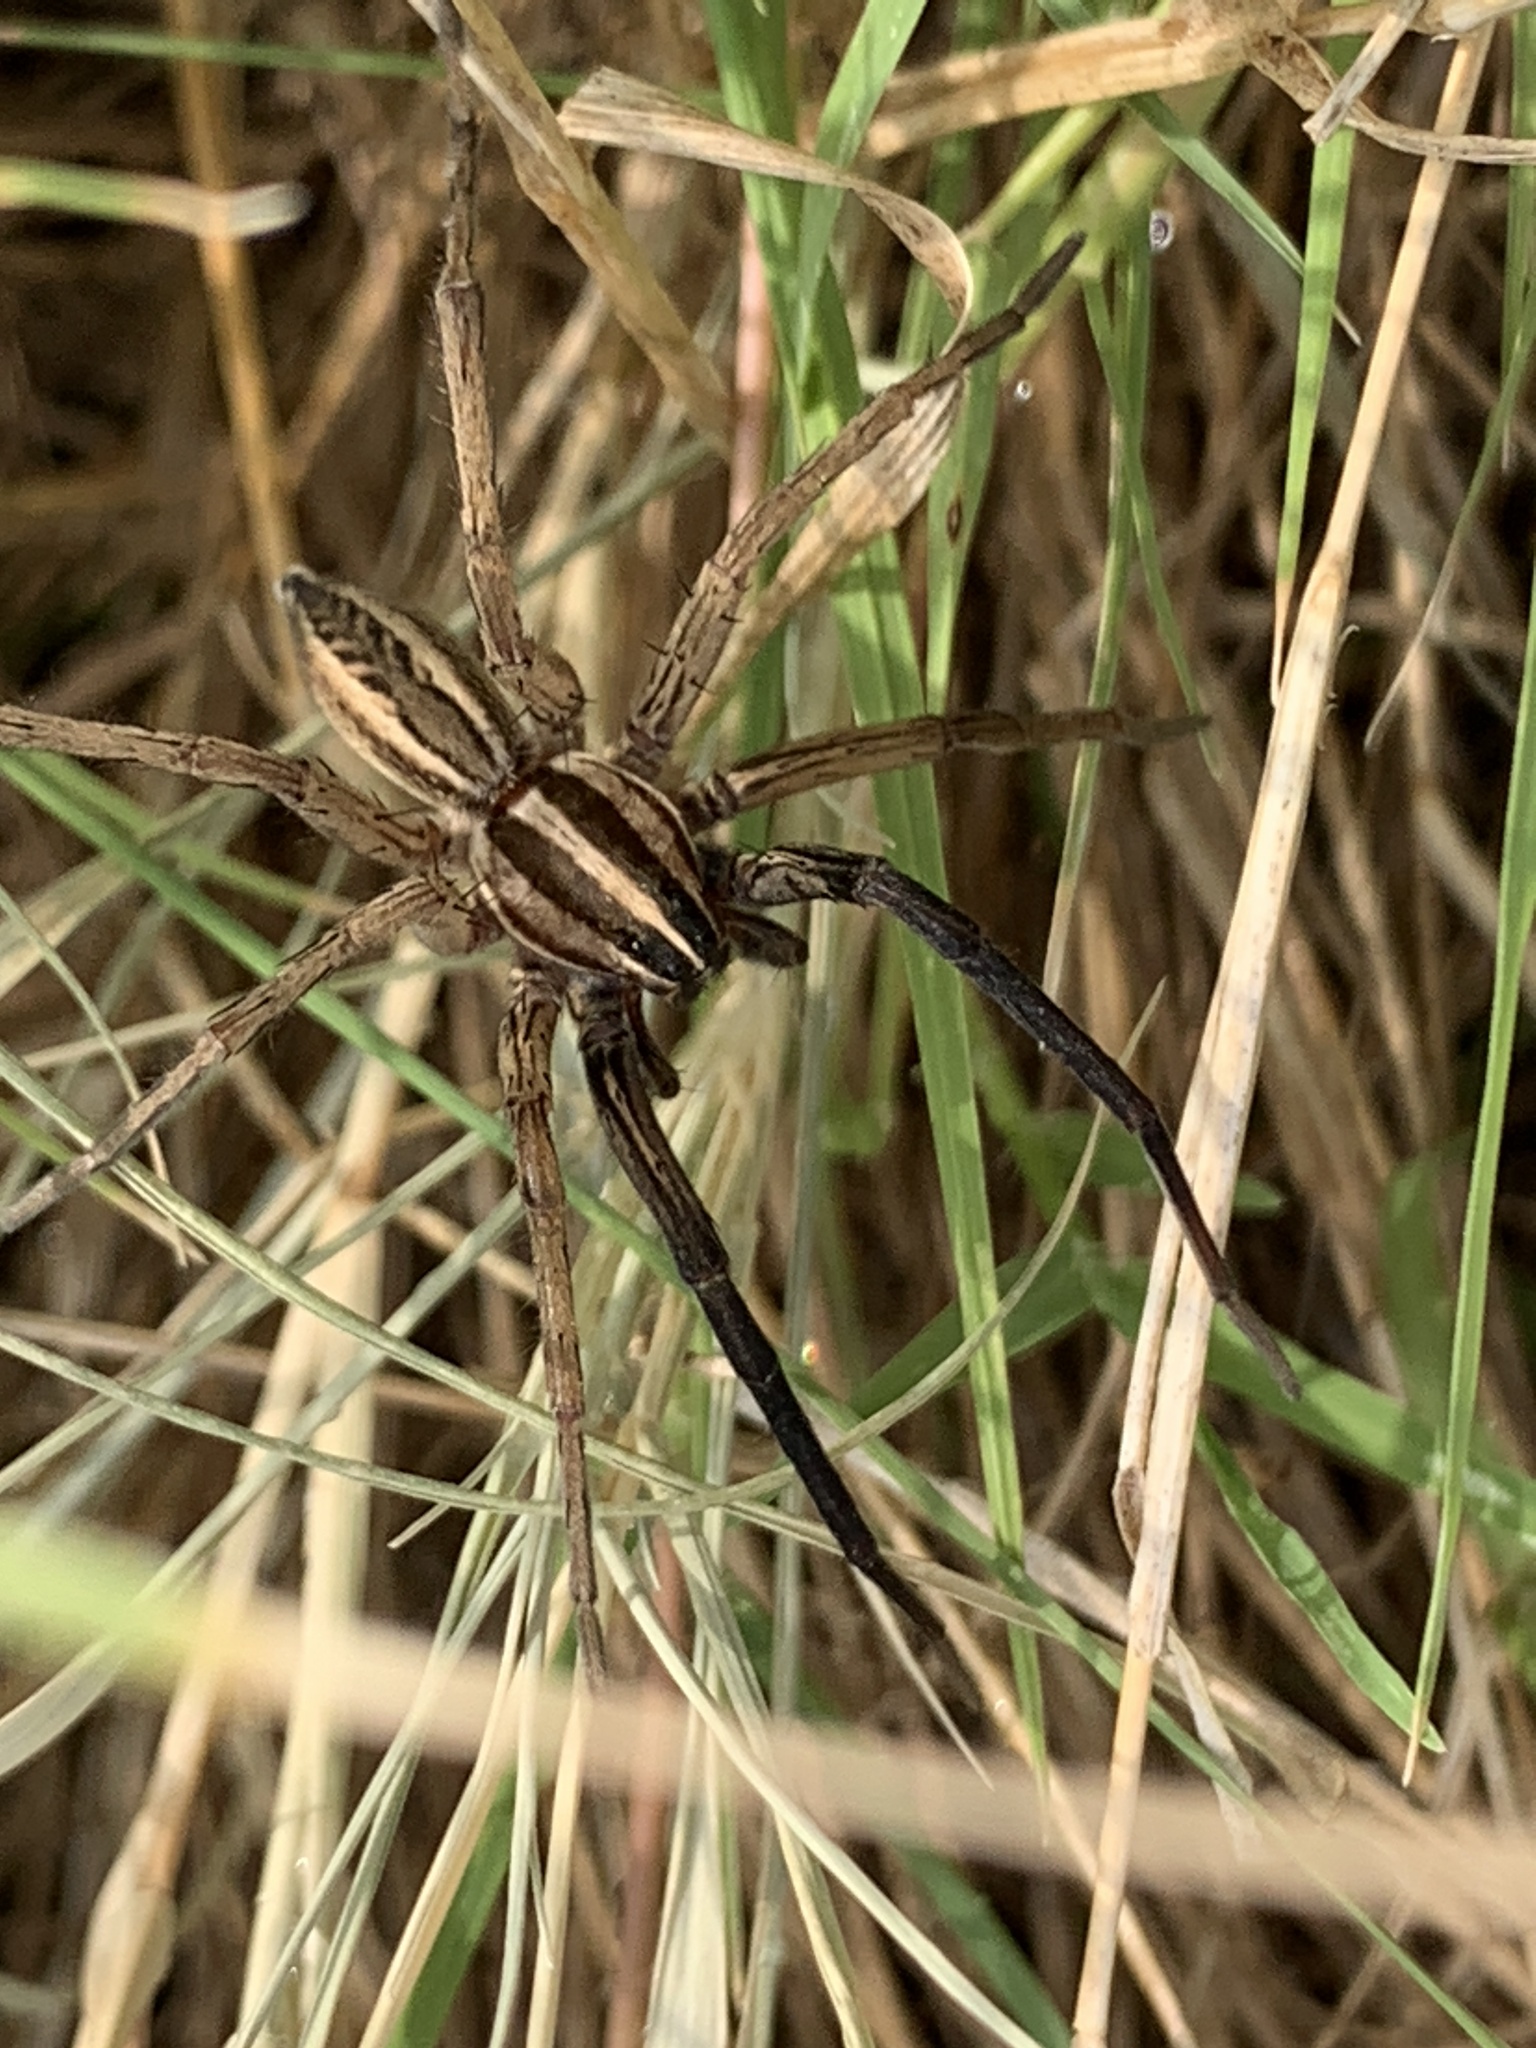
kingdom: Animalia
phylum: Arthropoda
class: Arachnida
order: Araneae
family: Lycosidae
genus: Rabidosa
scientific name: Rabidosa rabida
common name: Rabid wolf spider
